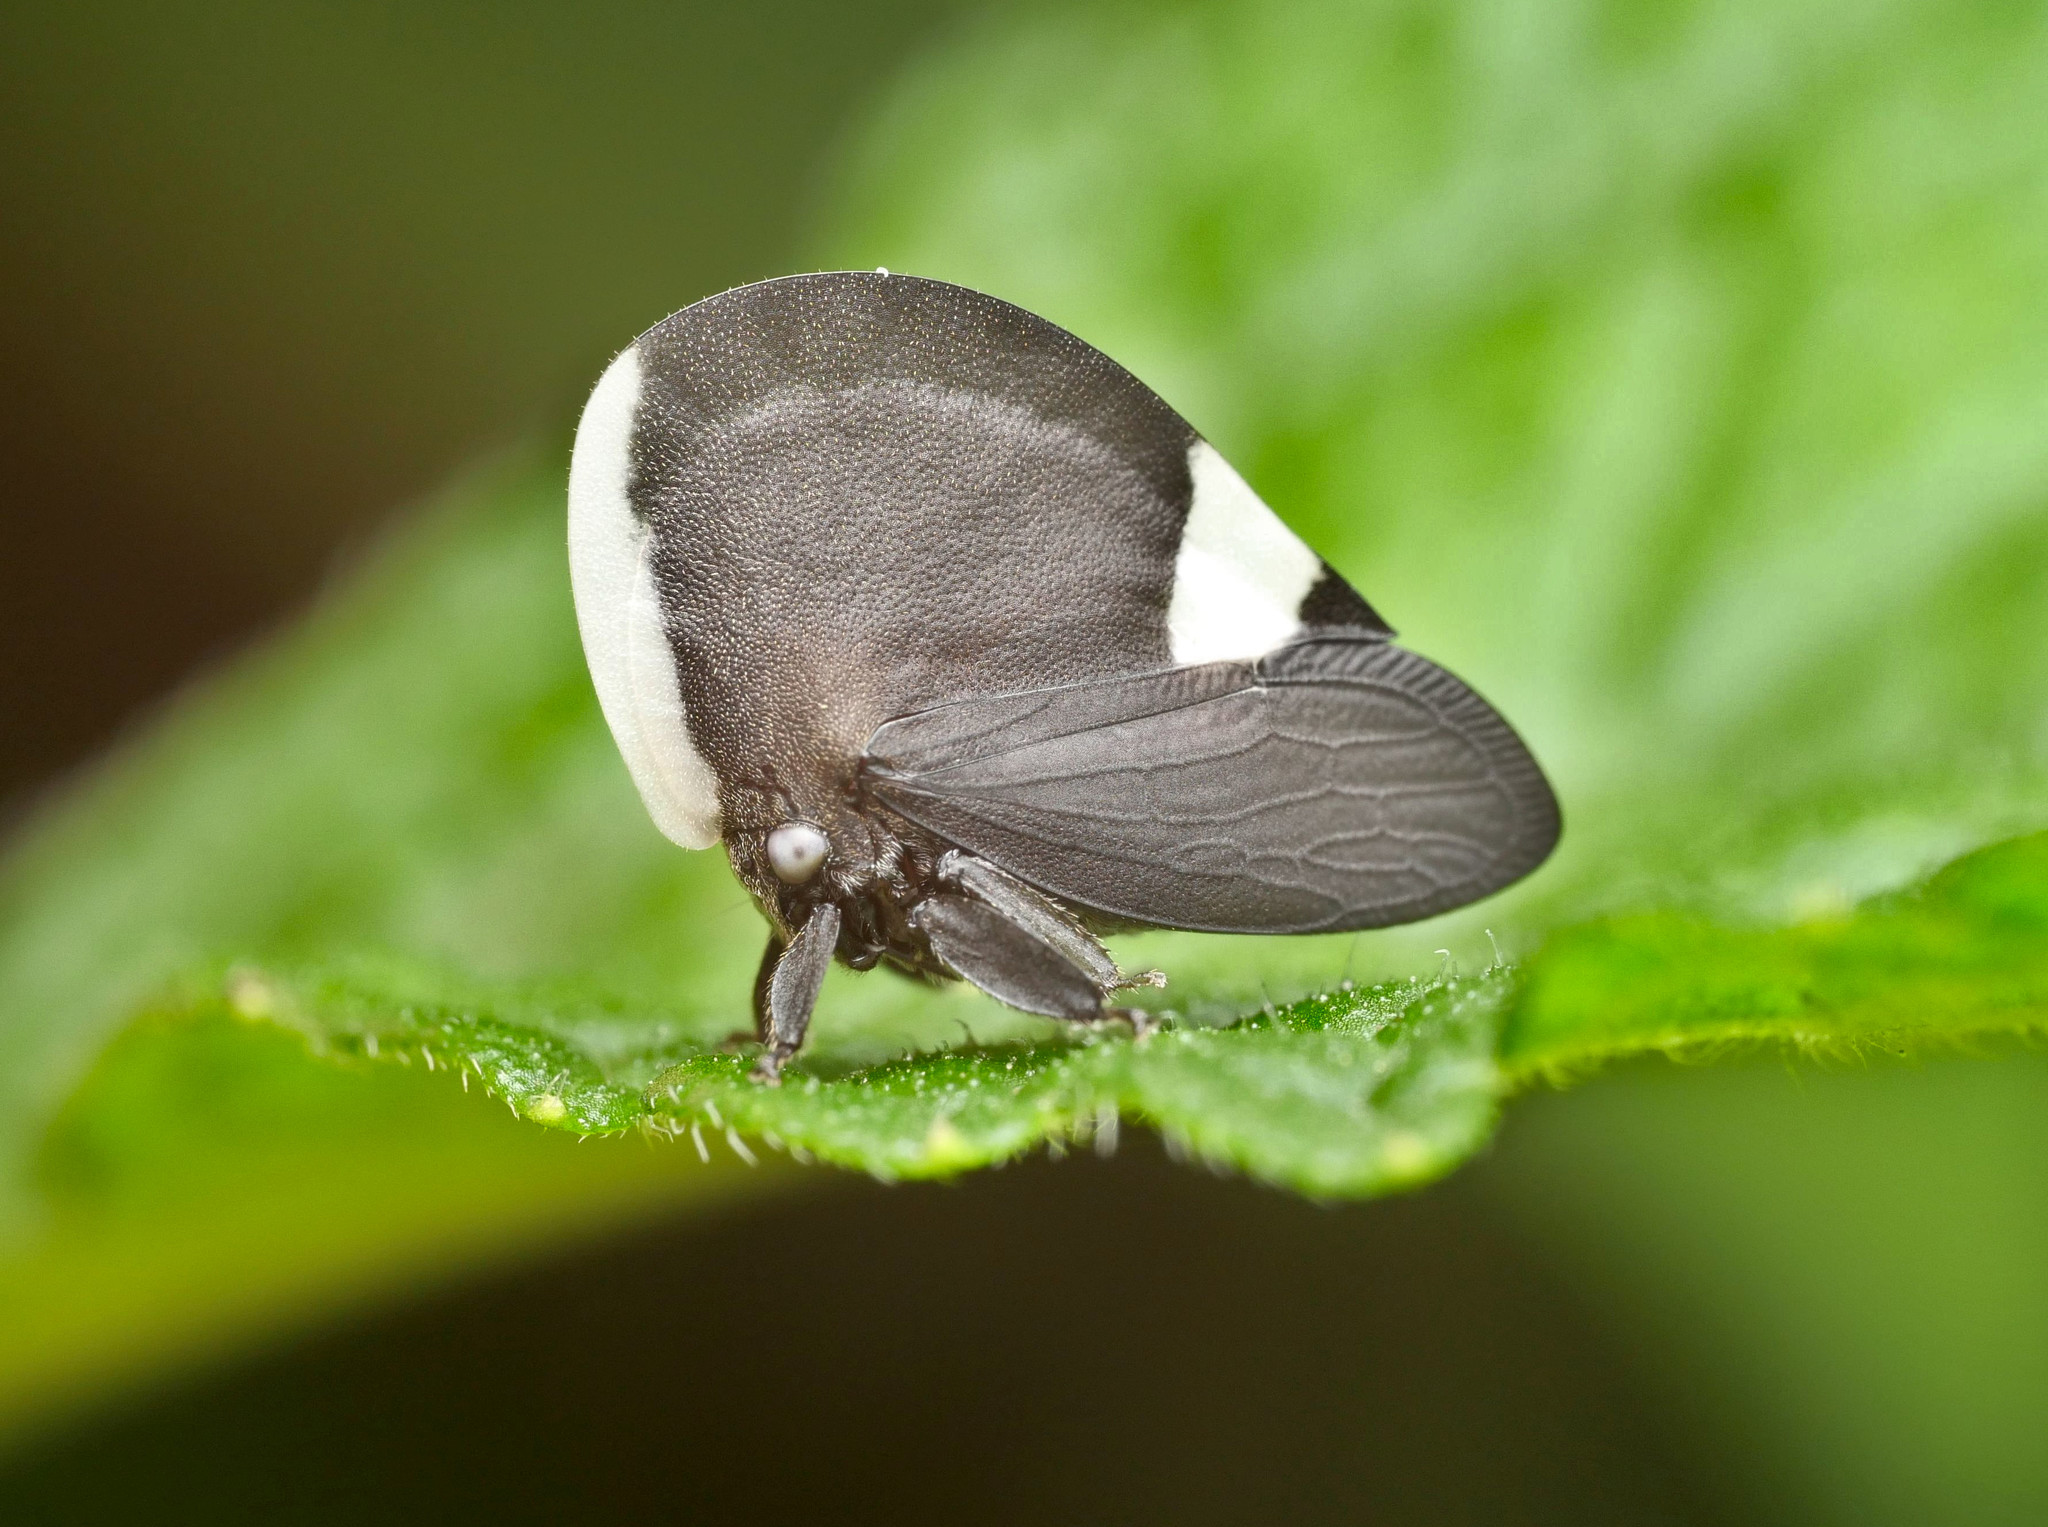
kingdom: Animalia
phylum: Arthropoda
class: Insecta
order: Hemiptera
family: Membracidae
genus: Membracis
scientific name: Membracis dorsata
